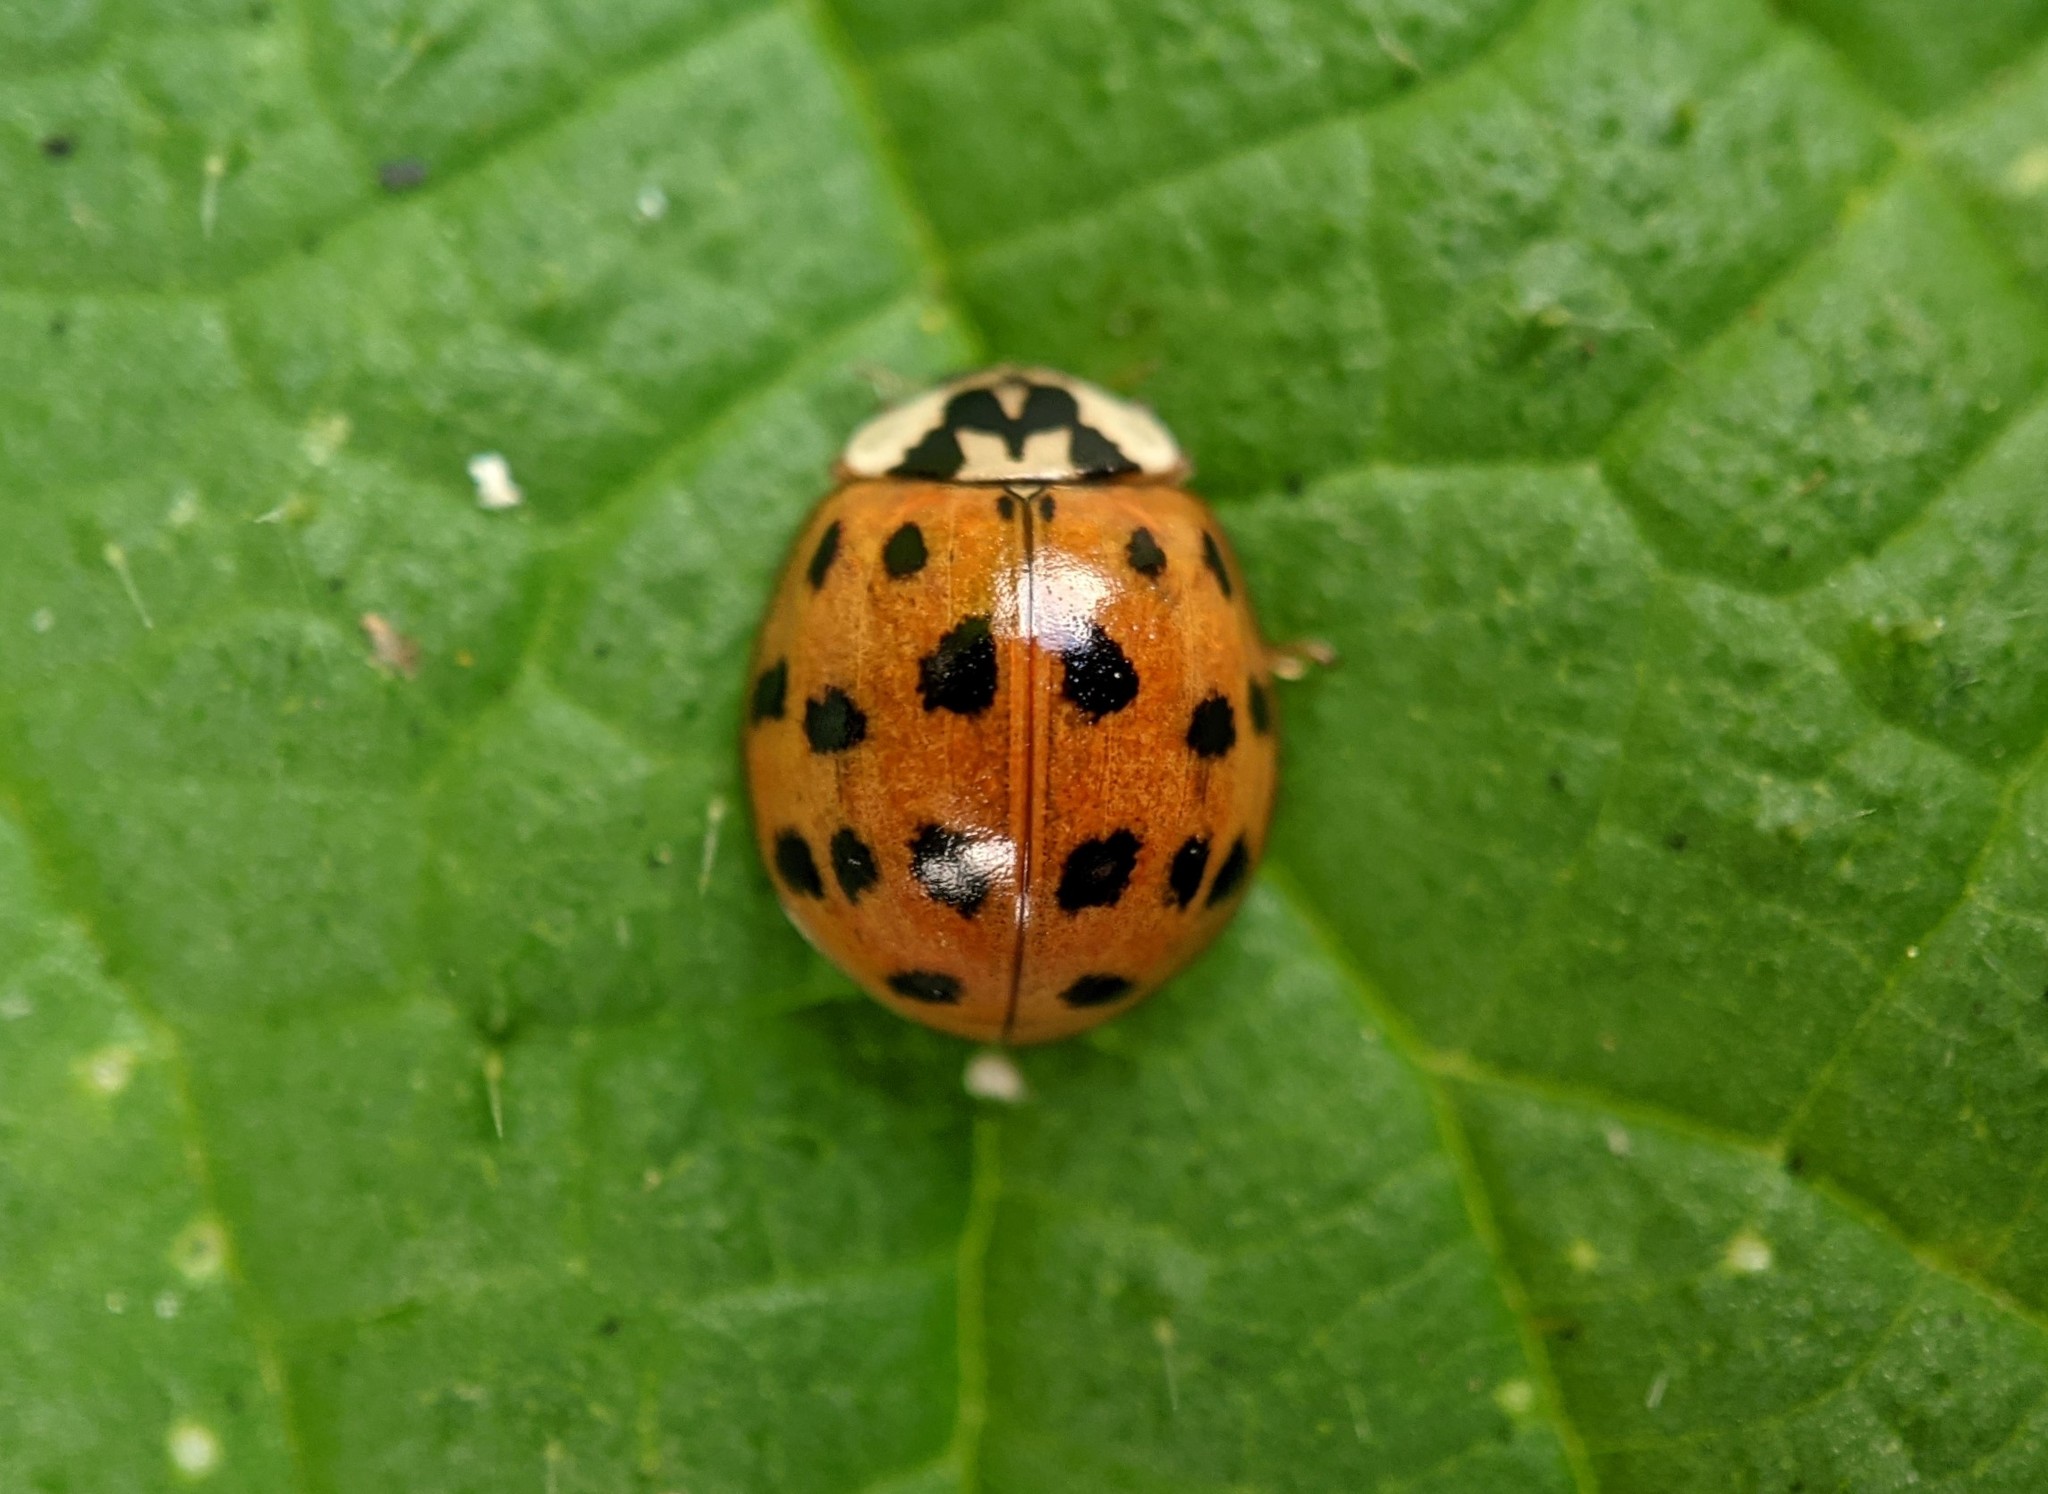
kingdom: Animalia
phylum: Arthropoda
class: Insecta
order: Coleoptera
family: Coccinellidae
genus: Harmonia
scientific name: Harmonia axyridis
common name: Harlequin ladybird
